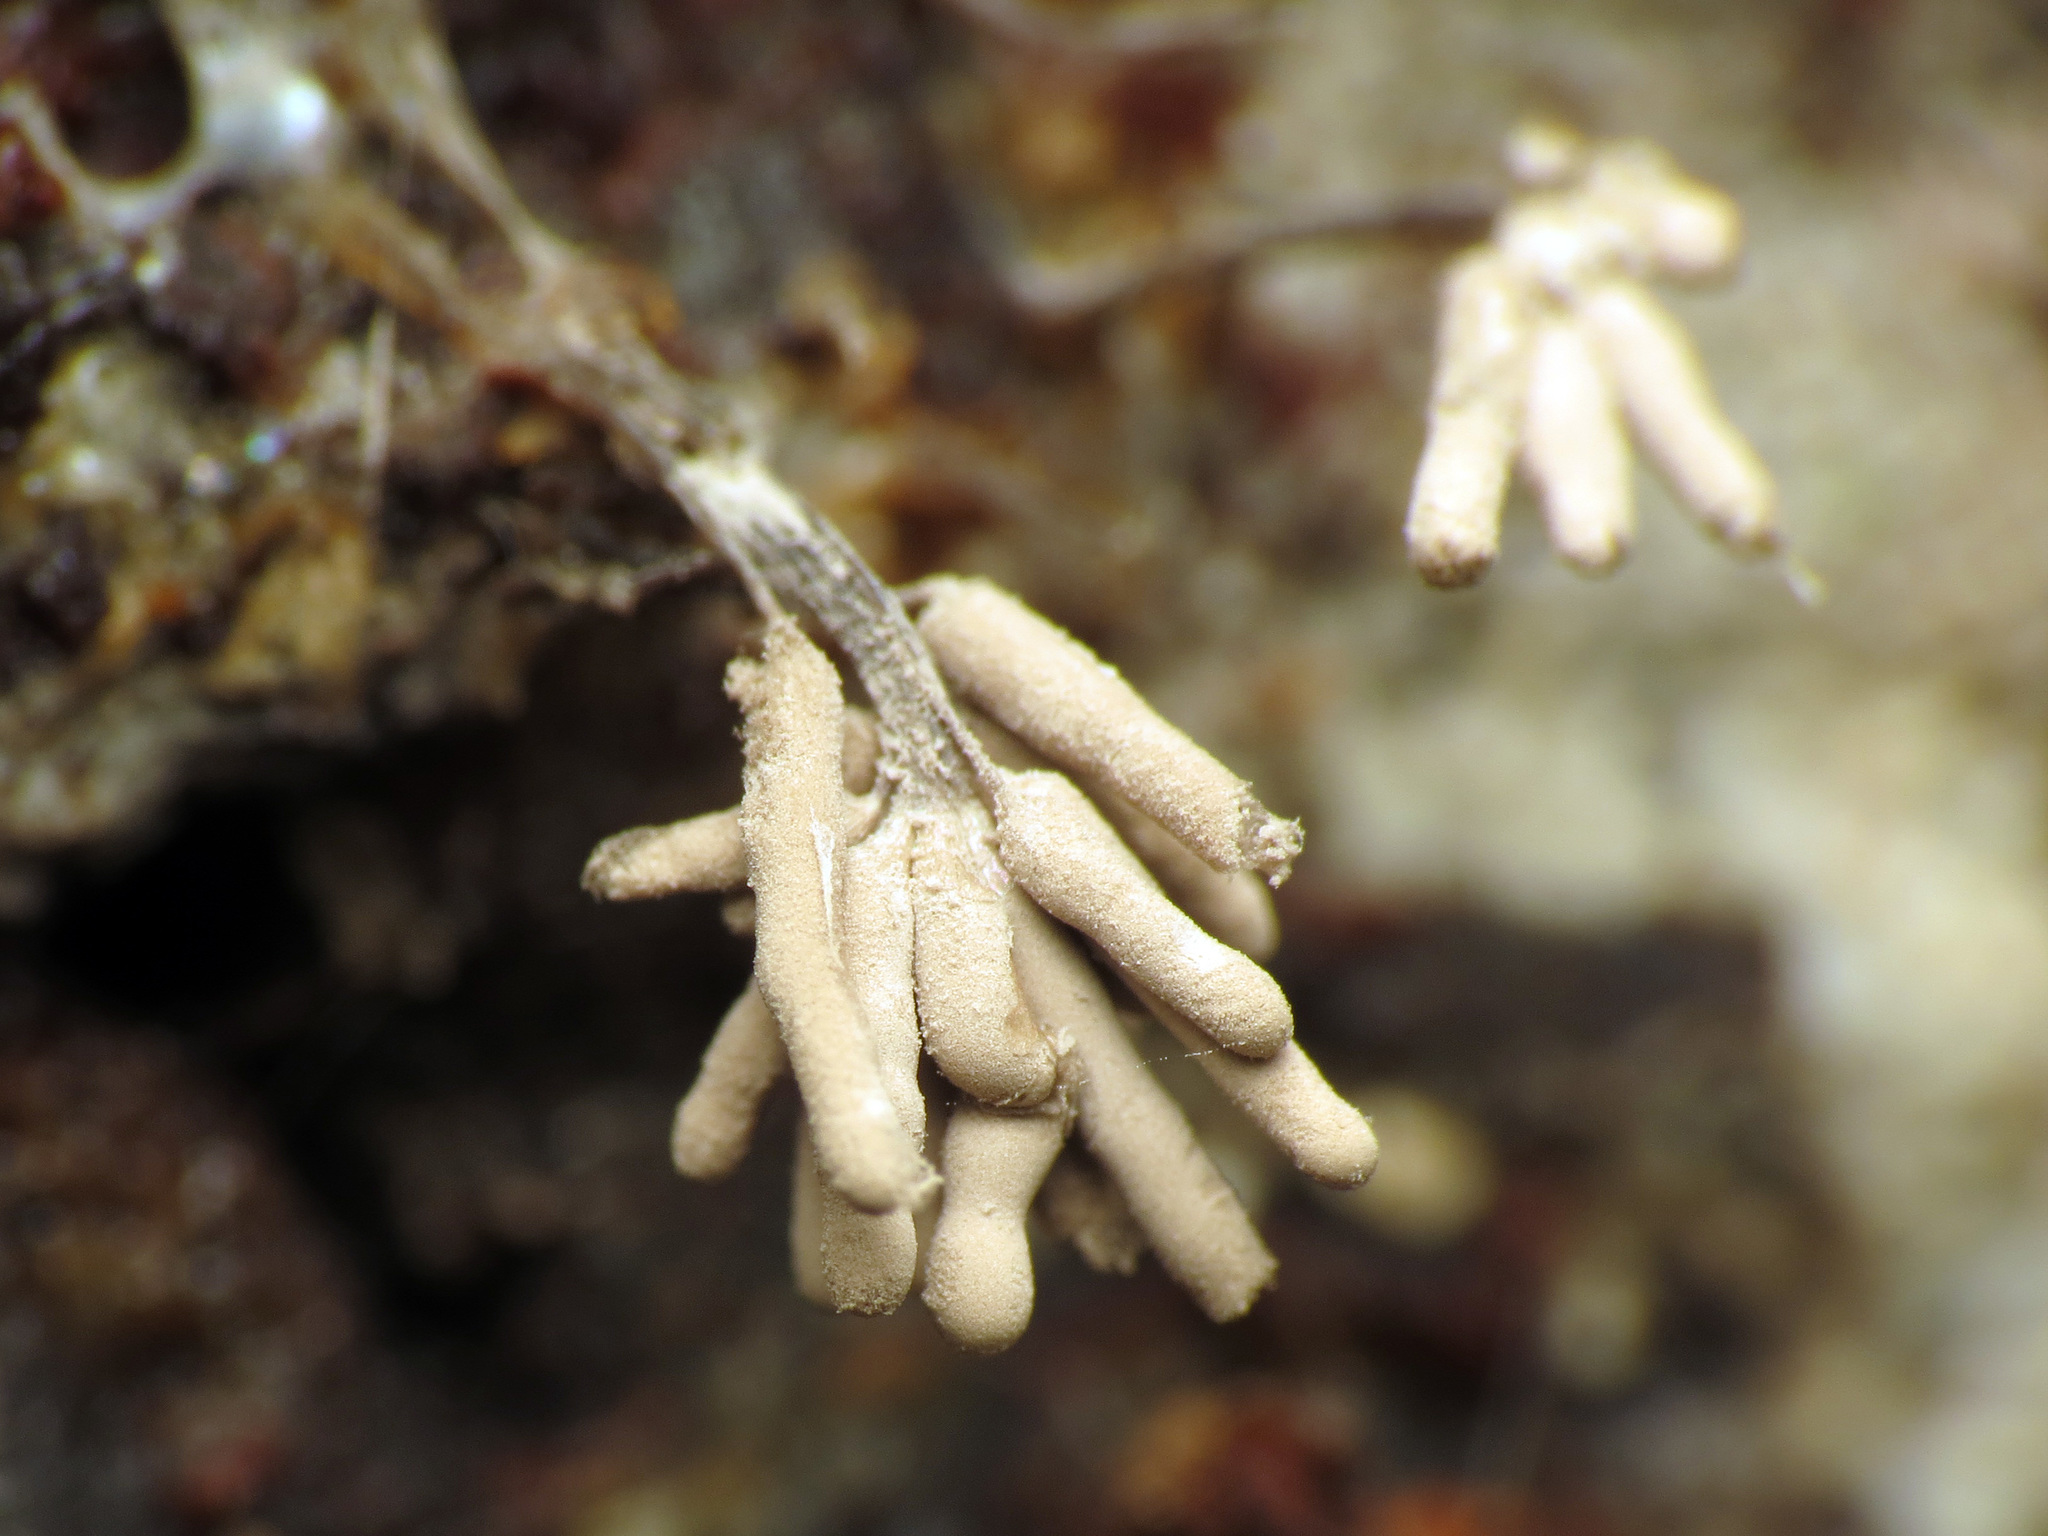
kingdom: Protozoa
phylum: Mycetozoa
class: Myxomycetes
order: Trichiales
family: Arcyriaceae
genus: Arcyria
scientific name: Arcyria cinerea
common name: White carnival candy slime mold
